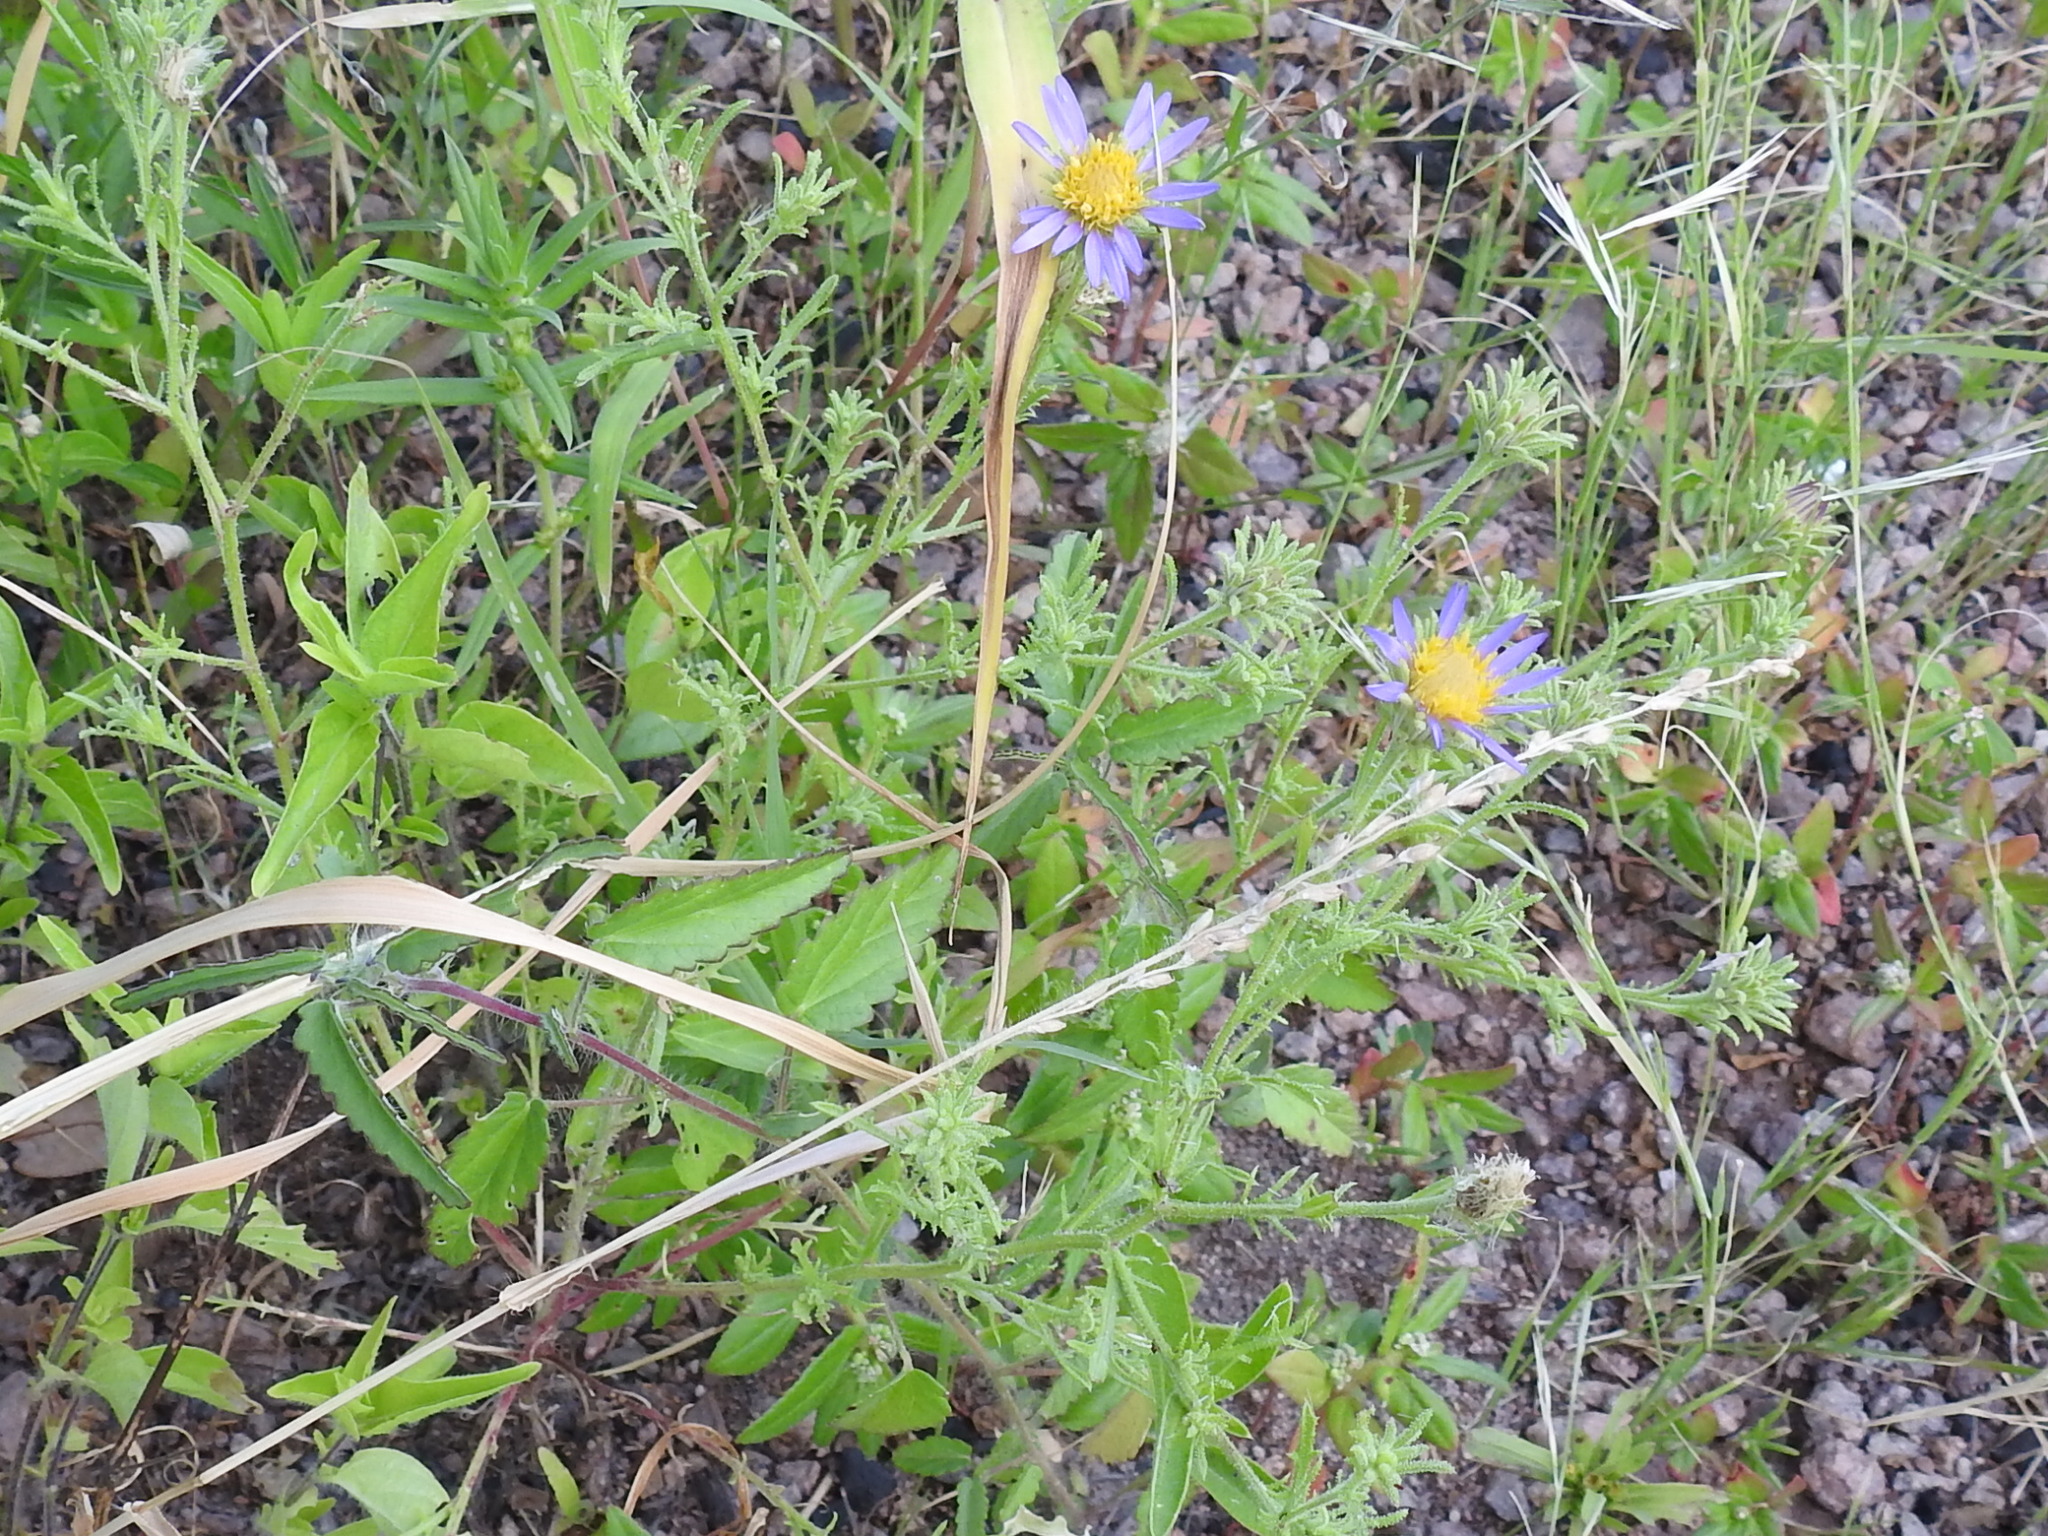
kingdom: Plantae
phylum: Tracheophyta
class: Magnoliopsida
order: Asterales
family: Asteraceae
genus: Machaeranthera
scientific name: Machaeranthera tanacetifolia
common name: Tansy-aster
